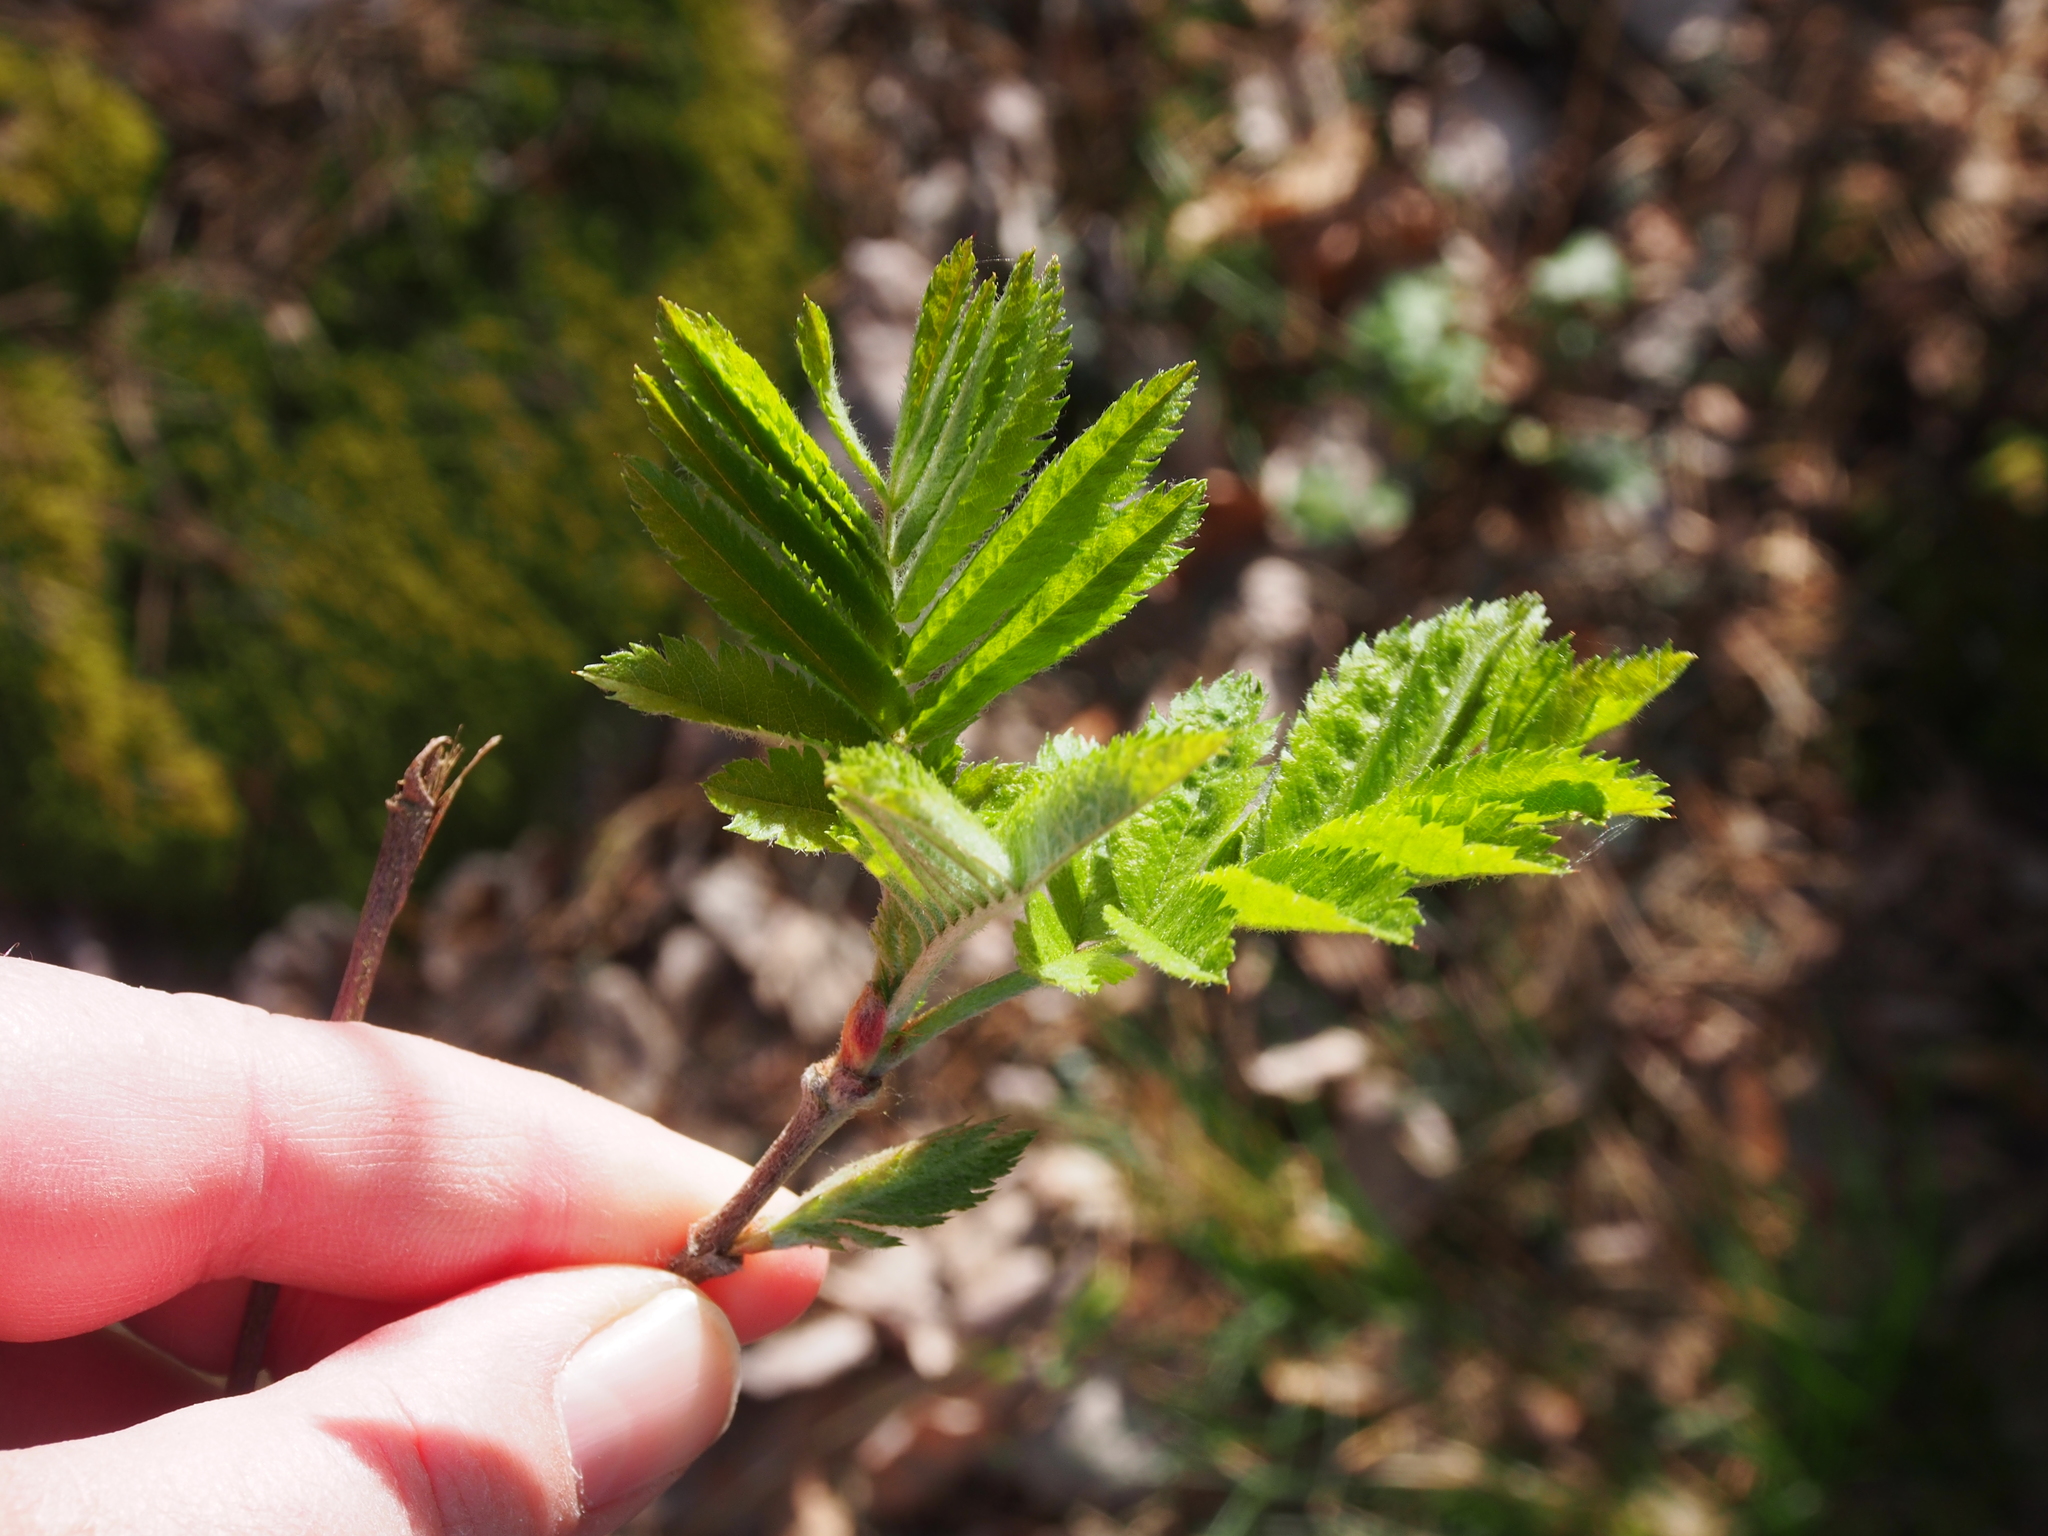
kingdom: Plantae
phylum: Tracheophyta
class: Magnoliopsida
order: Rosales
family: Rosaceae
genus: Sorbus
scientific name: Sorbus aucuparia
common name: Rowan
